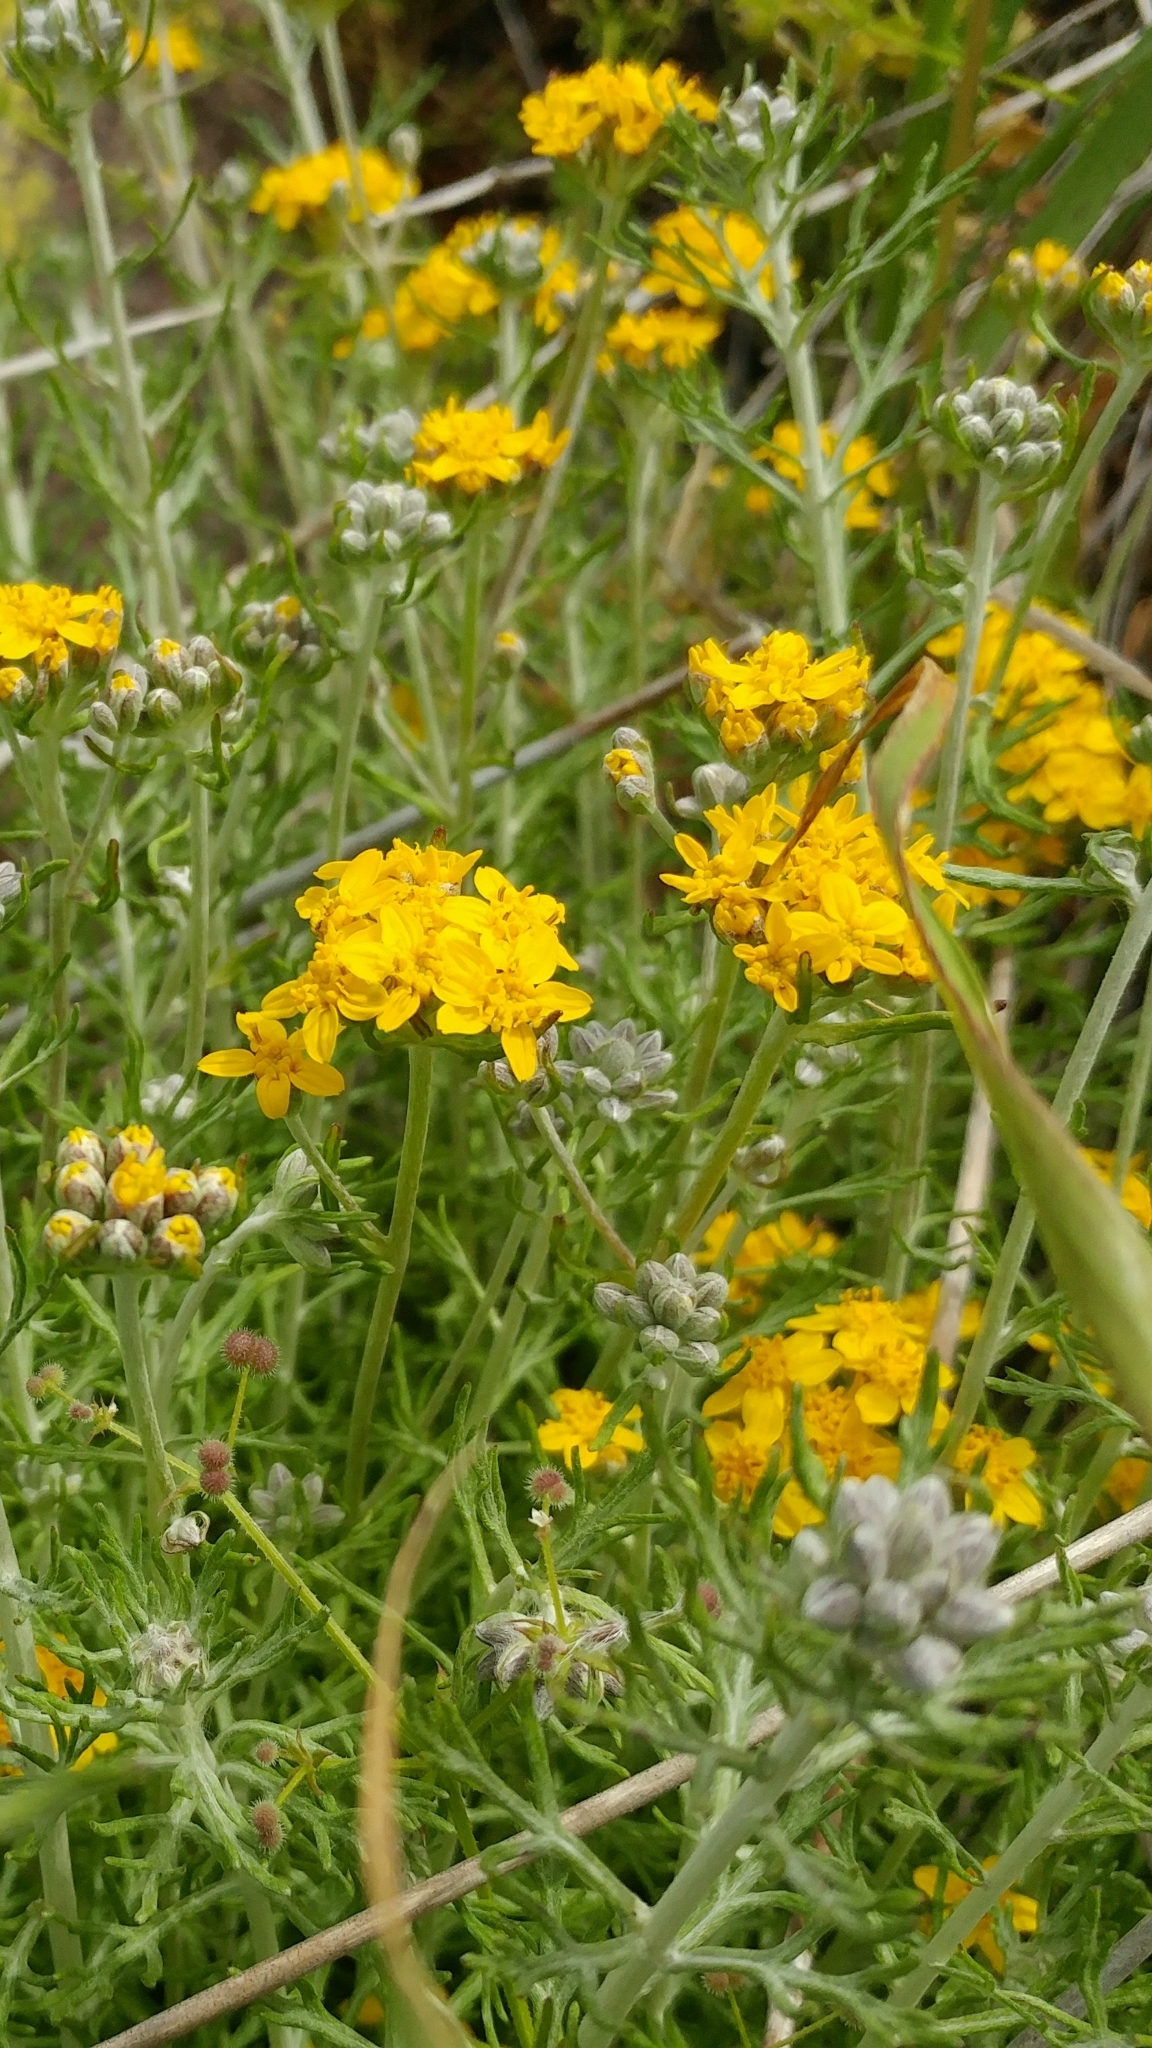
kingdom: Plantae
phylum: Tracheophyta
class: Magnoliopsida
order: Asterales
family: Asteraceae
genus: Eriophyllum
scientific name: Eriophyllum confertiflorum
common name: Golden-yarrow
